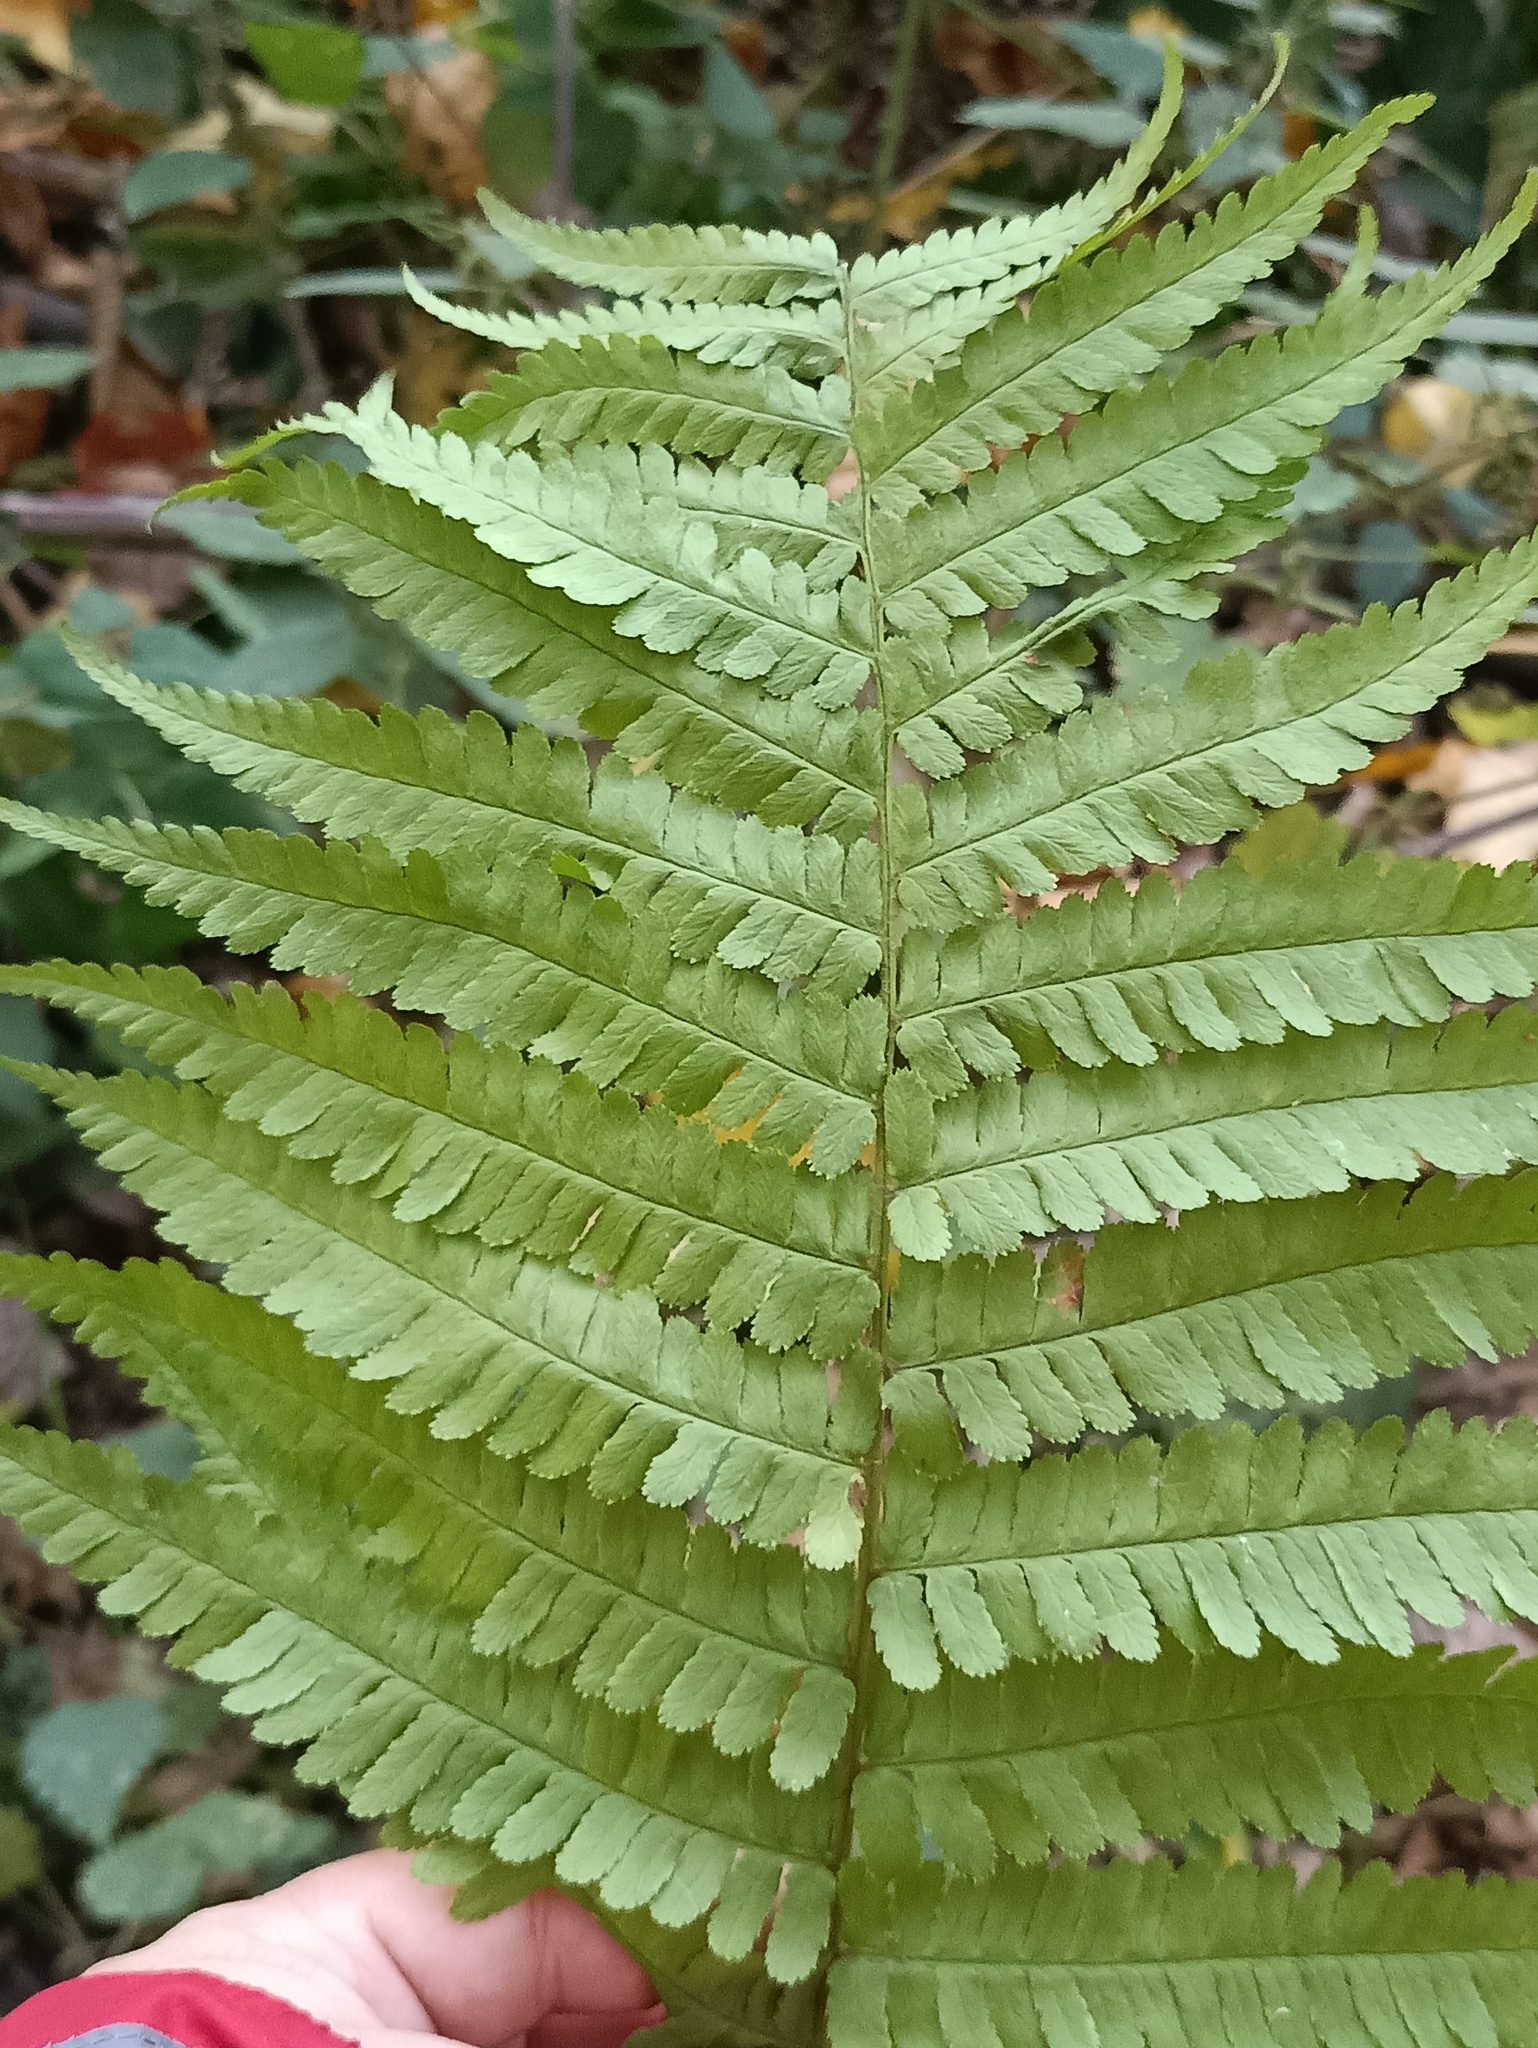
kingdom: Plantae
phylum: Tracheophyta
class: Polypodiopsida
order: Polypodiales
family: Dryopteridaceae
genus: Dryopteris
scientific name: Dryopteris filix-mas
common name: Male fern
